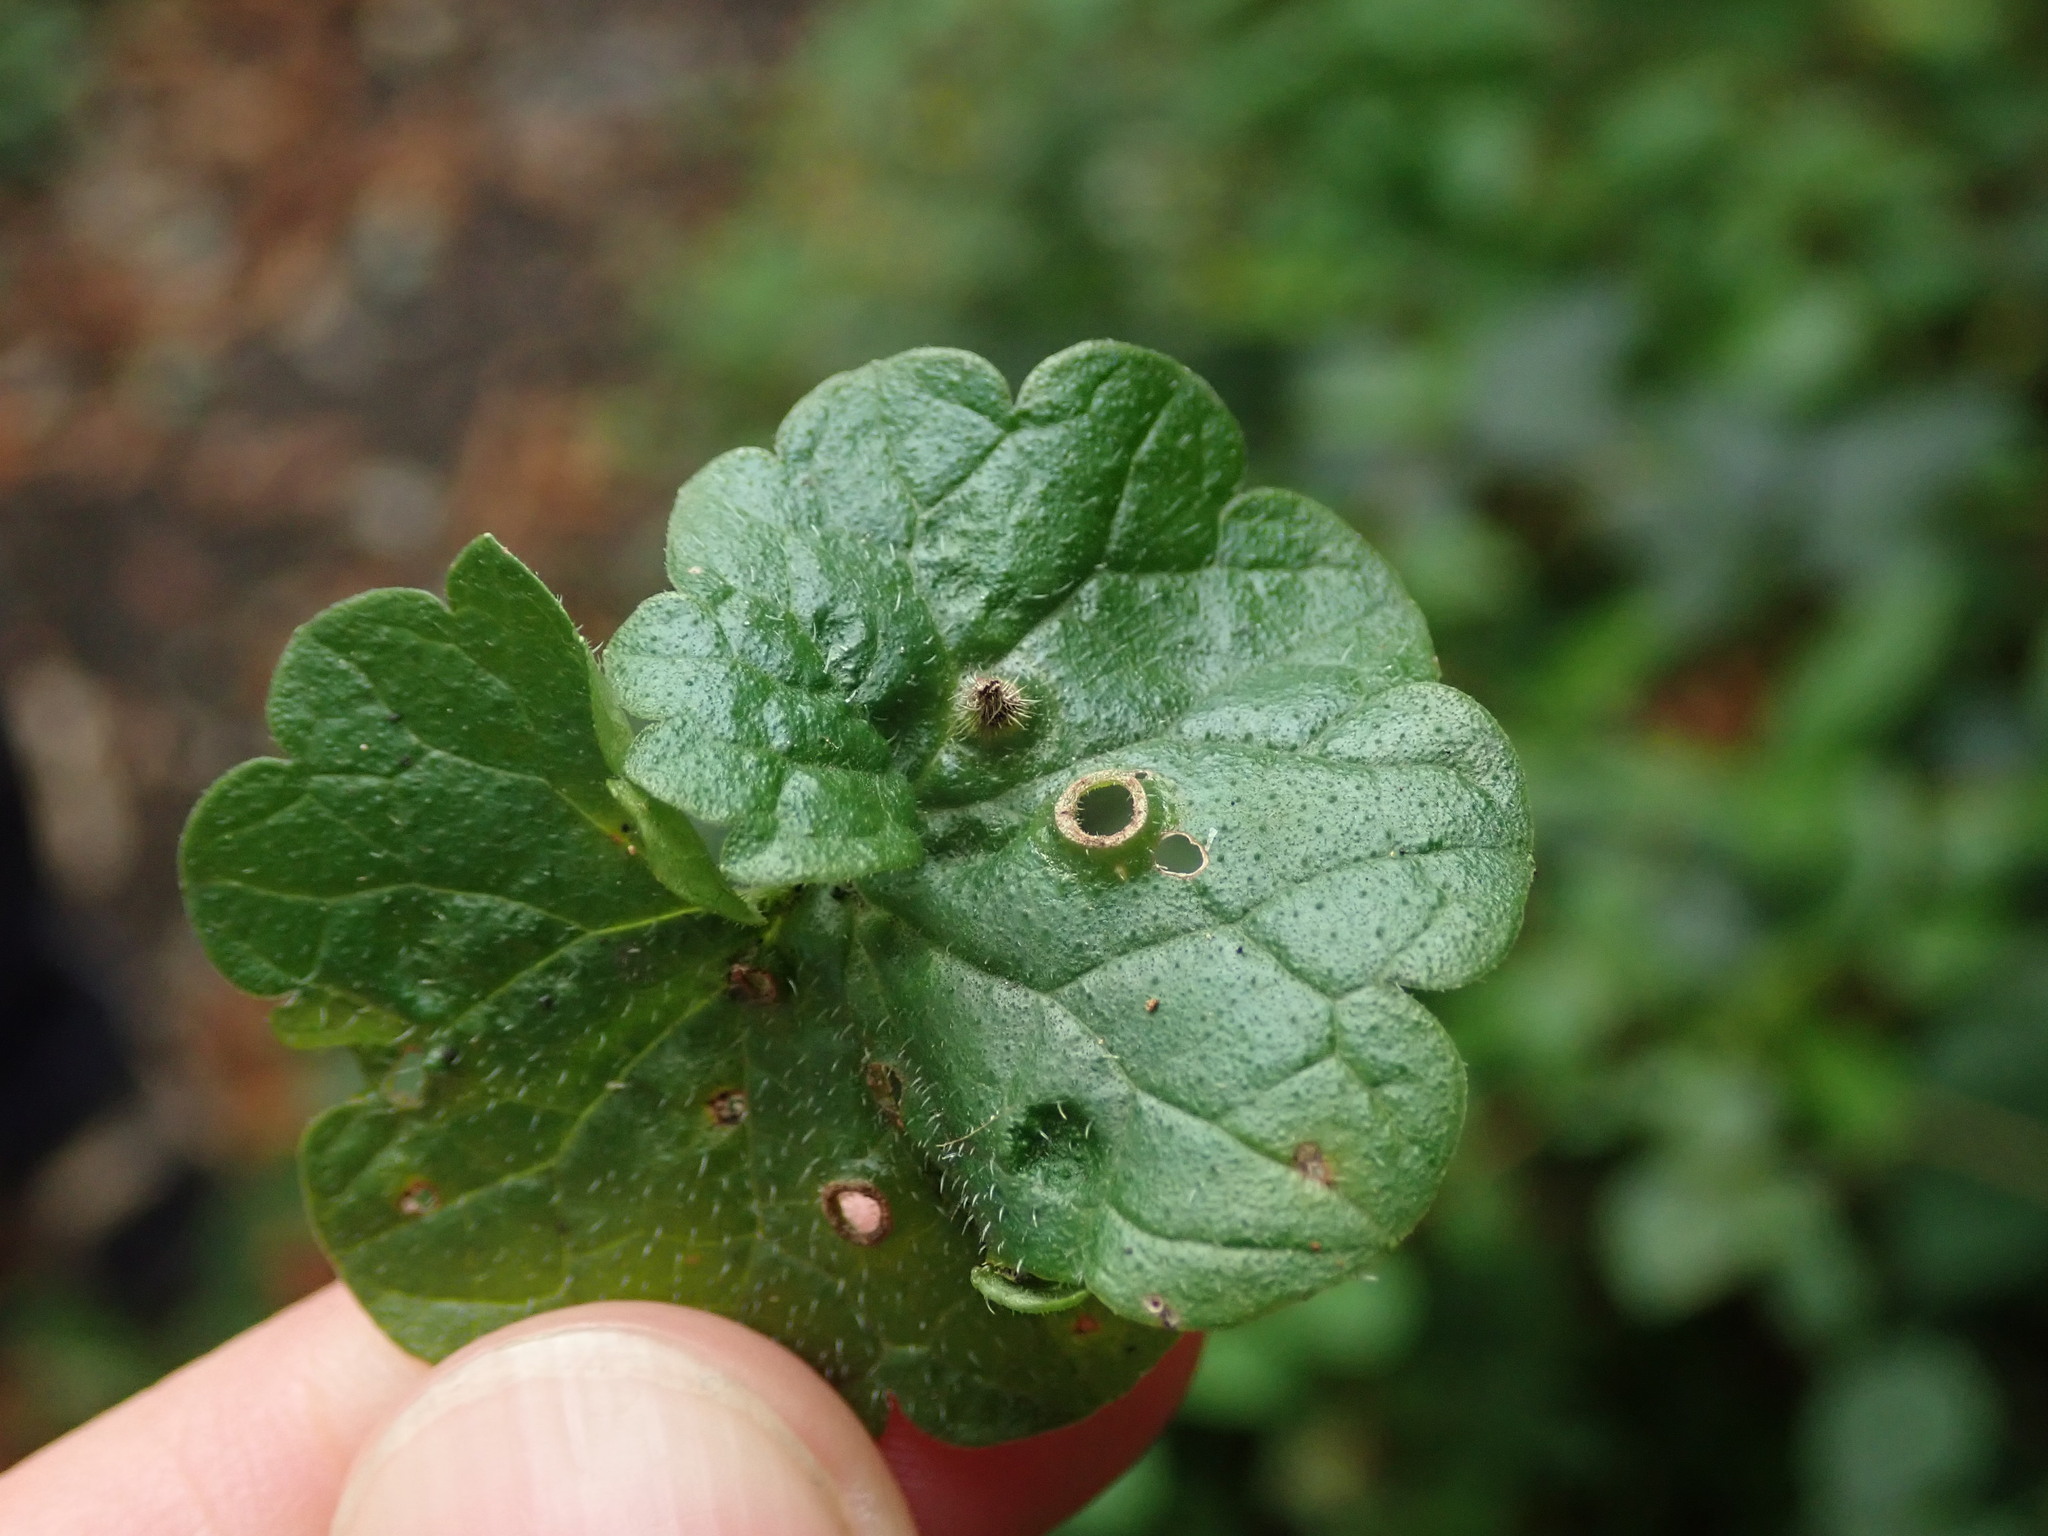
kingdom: Animalia
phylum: Arthropoda
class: Insecta
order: Diptera
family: Cecidomyiidae
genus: Rondaniola
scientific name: Rondaniola bursaria
